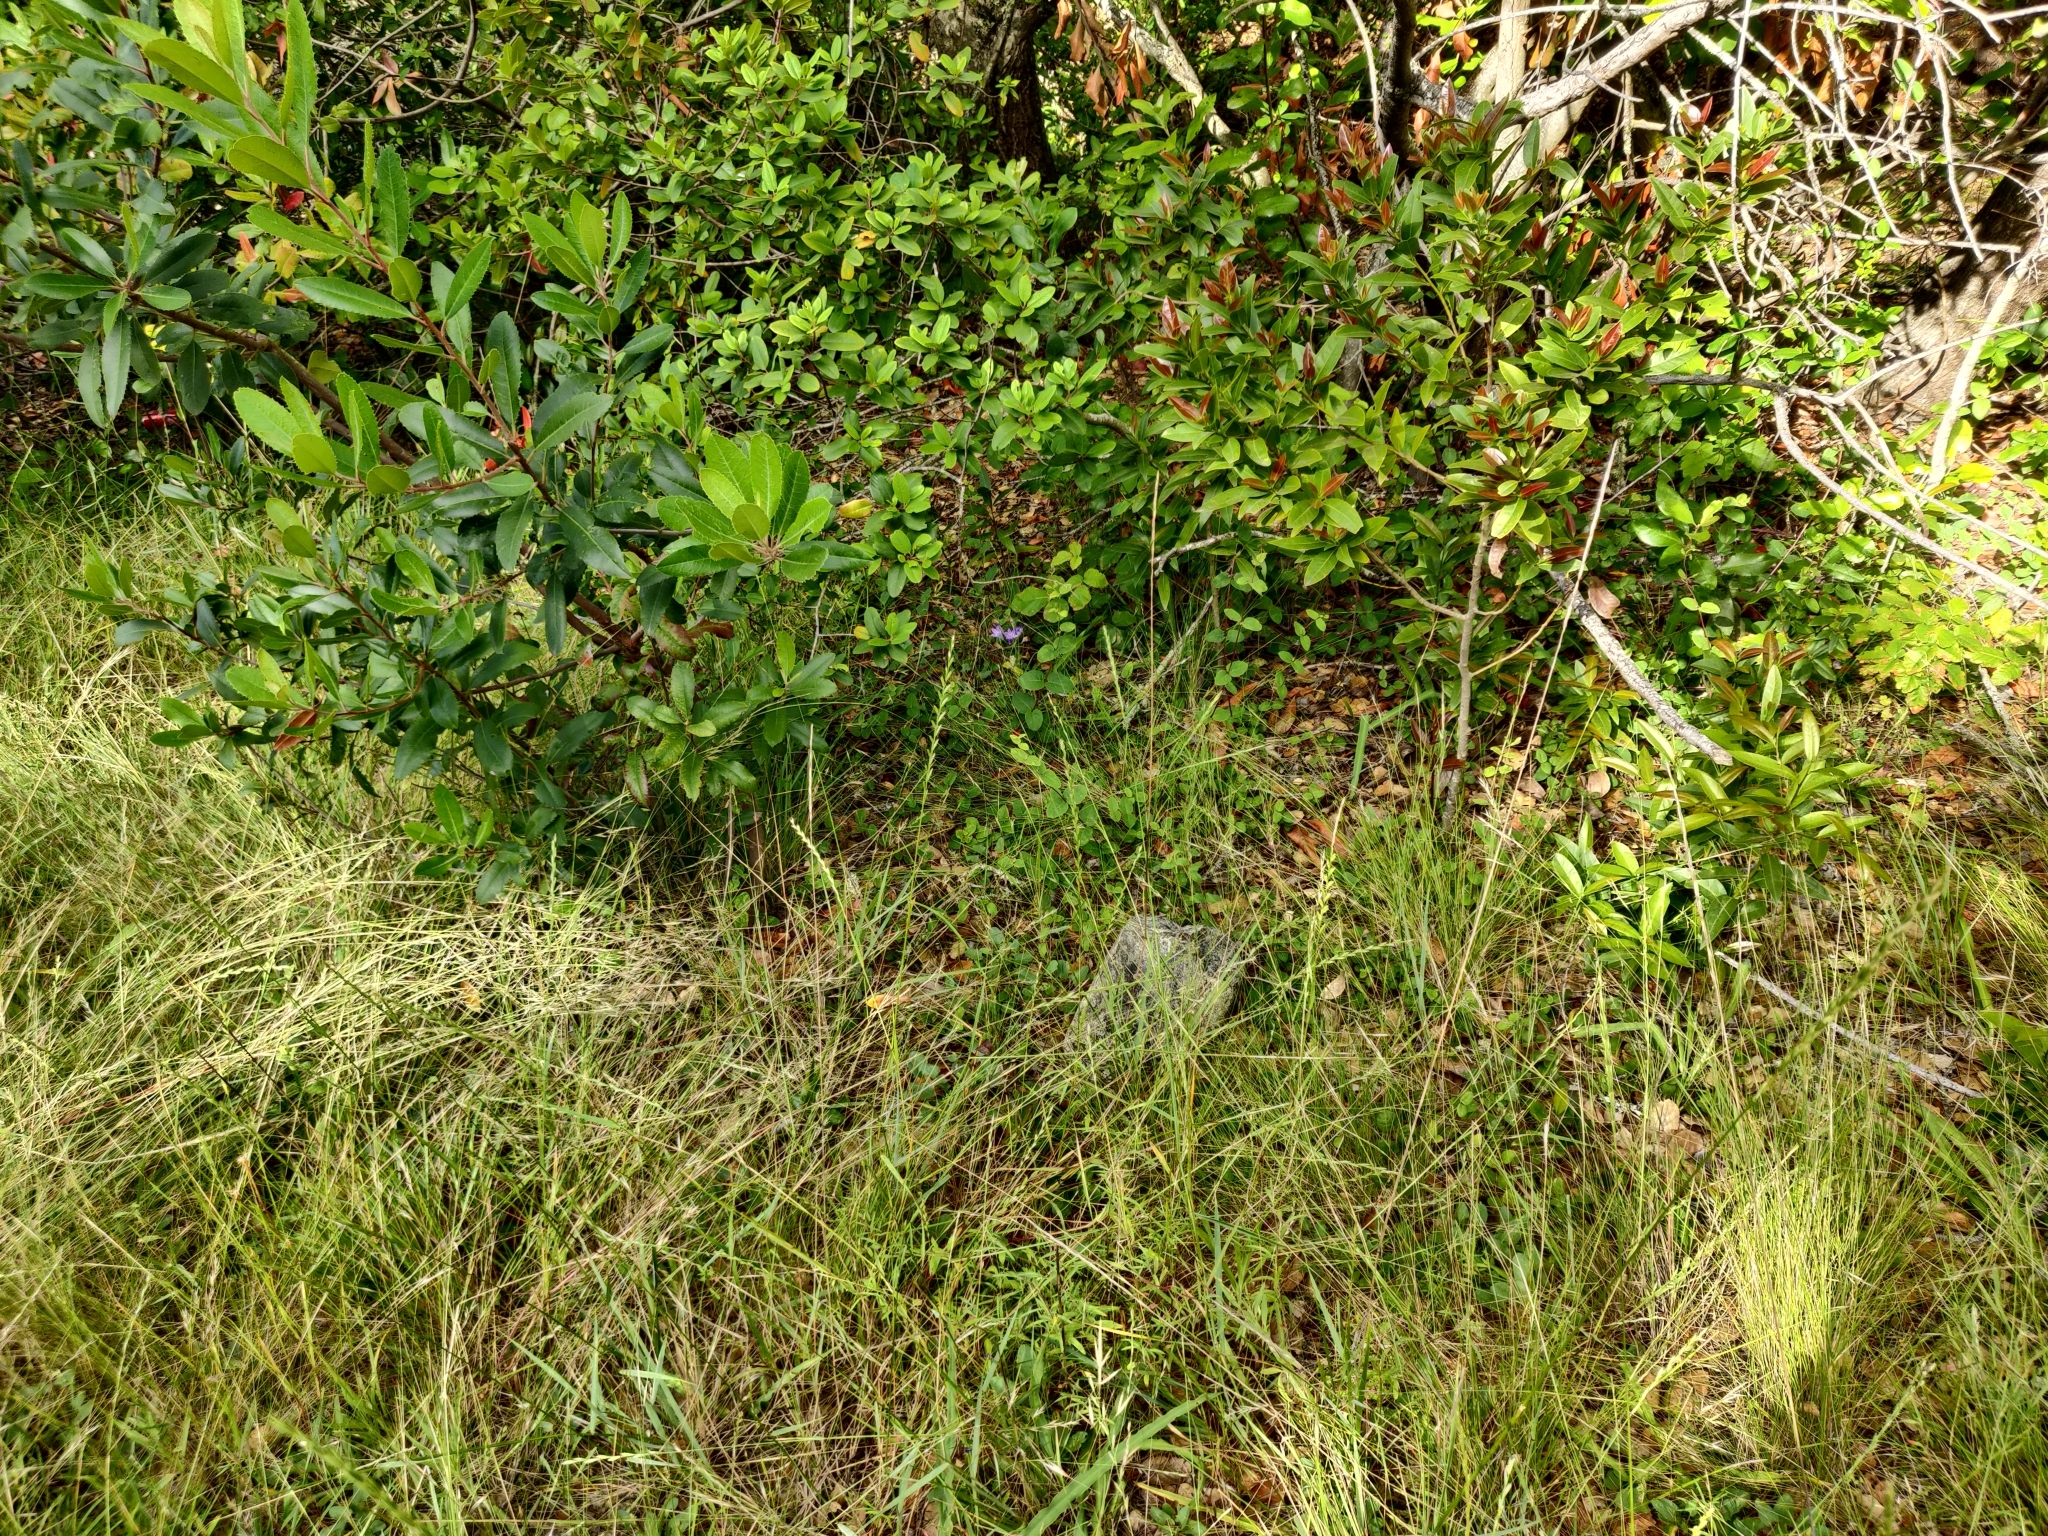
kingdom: Plantae
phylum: Tracheophyta
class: Magnoliopsida
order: Dipsacales
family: Caprifoliaceae
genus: Lonicera
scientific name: Lonicera hispidula
